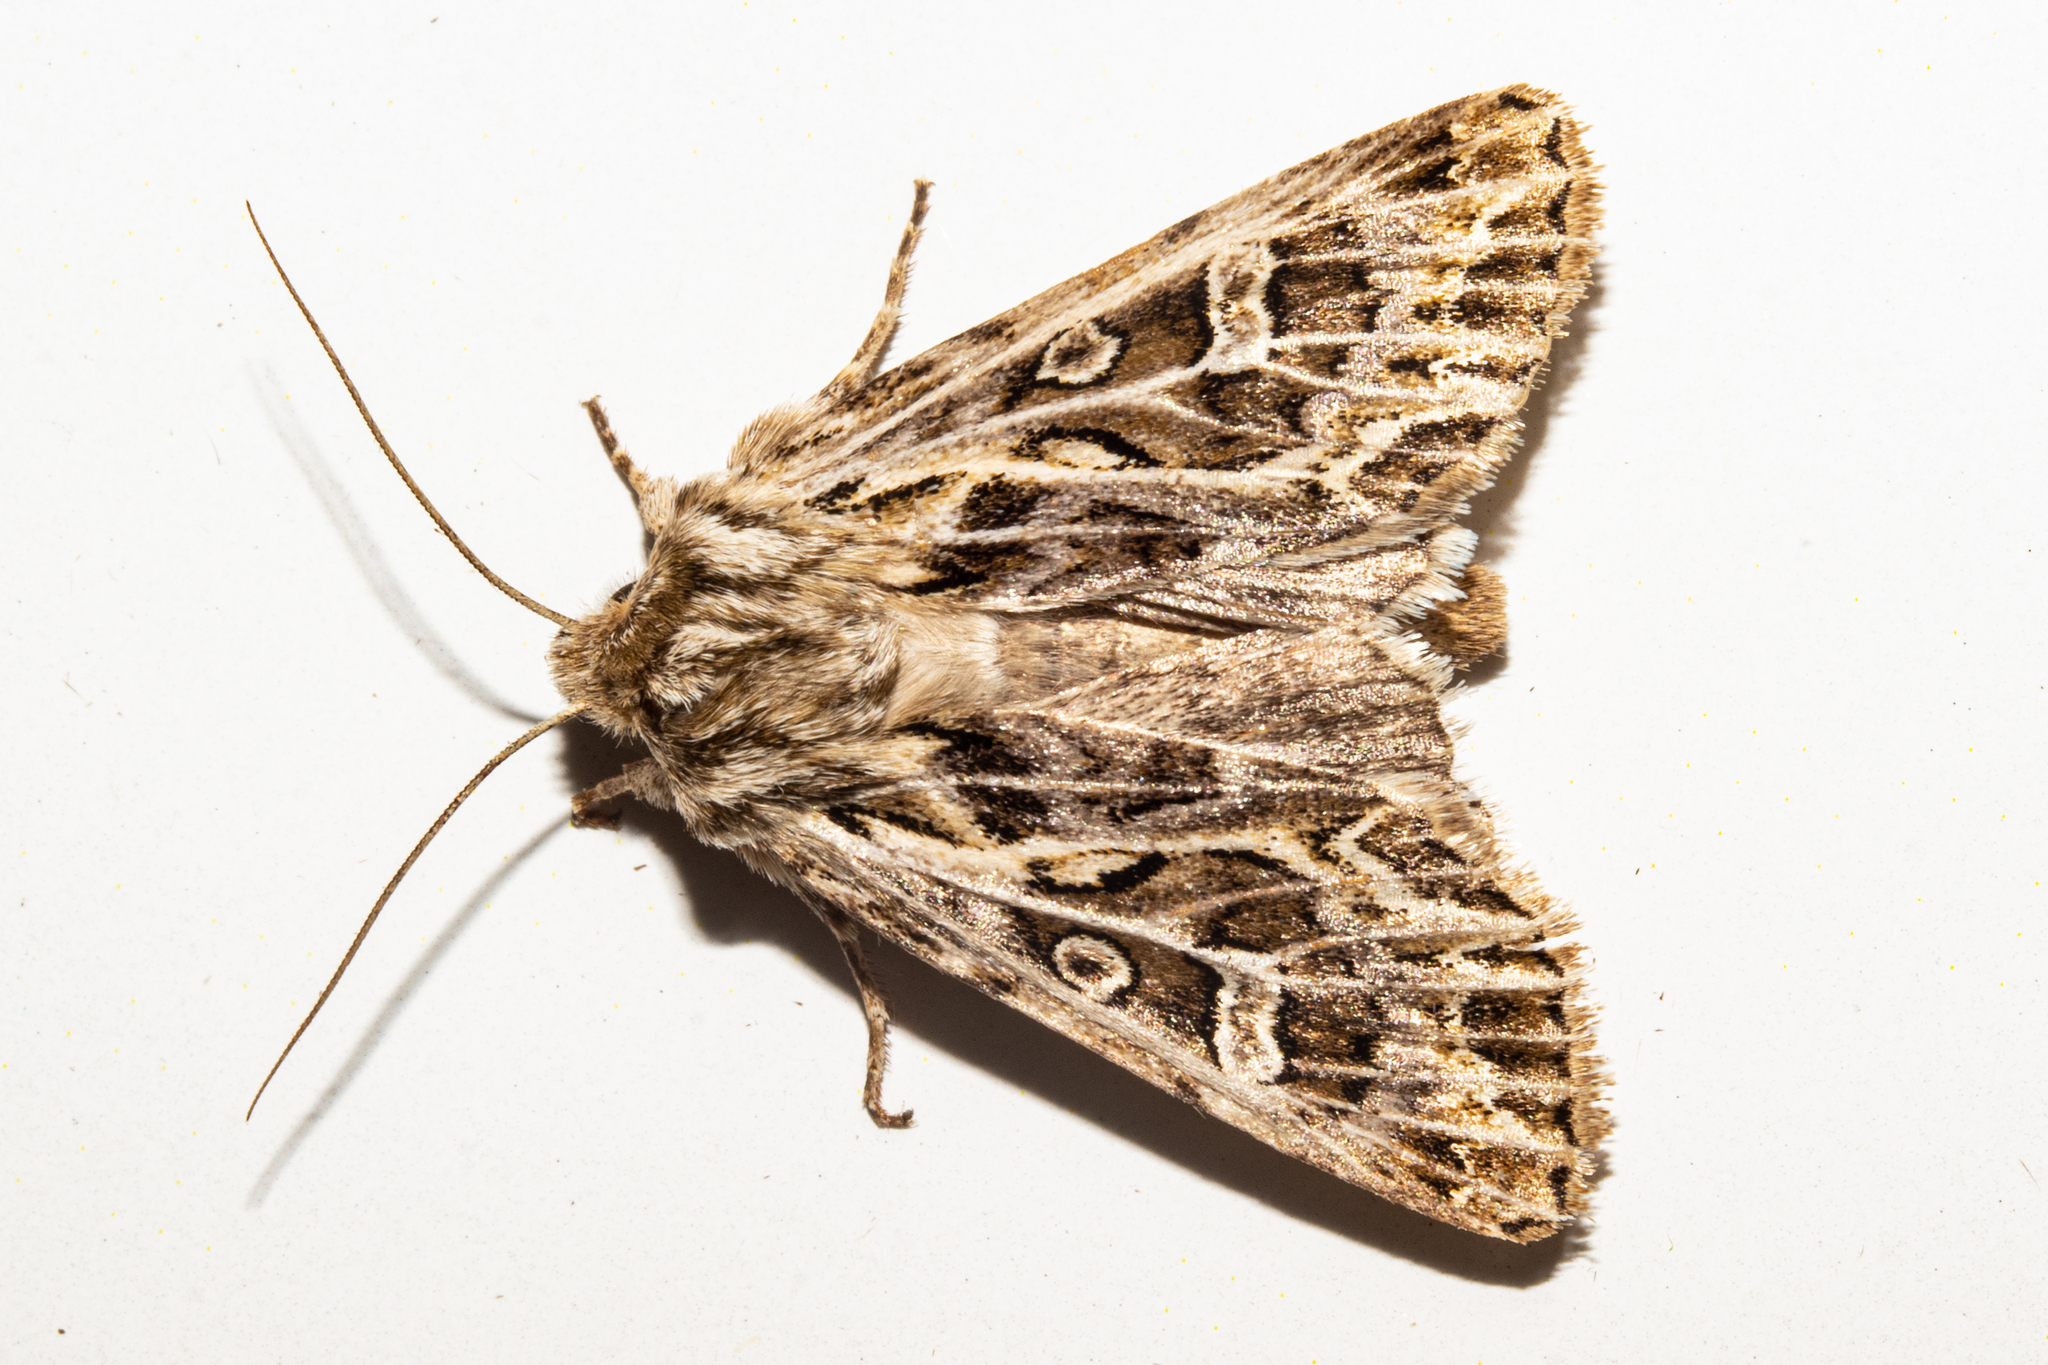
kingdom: Animalia
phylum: Arthropoda
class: Insecta
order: Lepidoptera
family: Noctuidae
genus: Ichneutica
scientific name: Ichneutica
